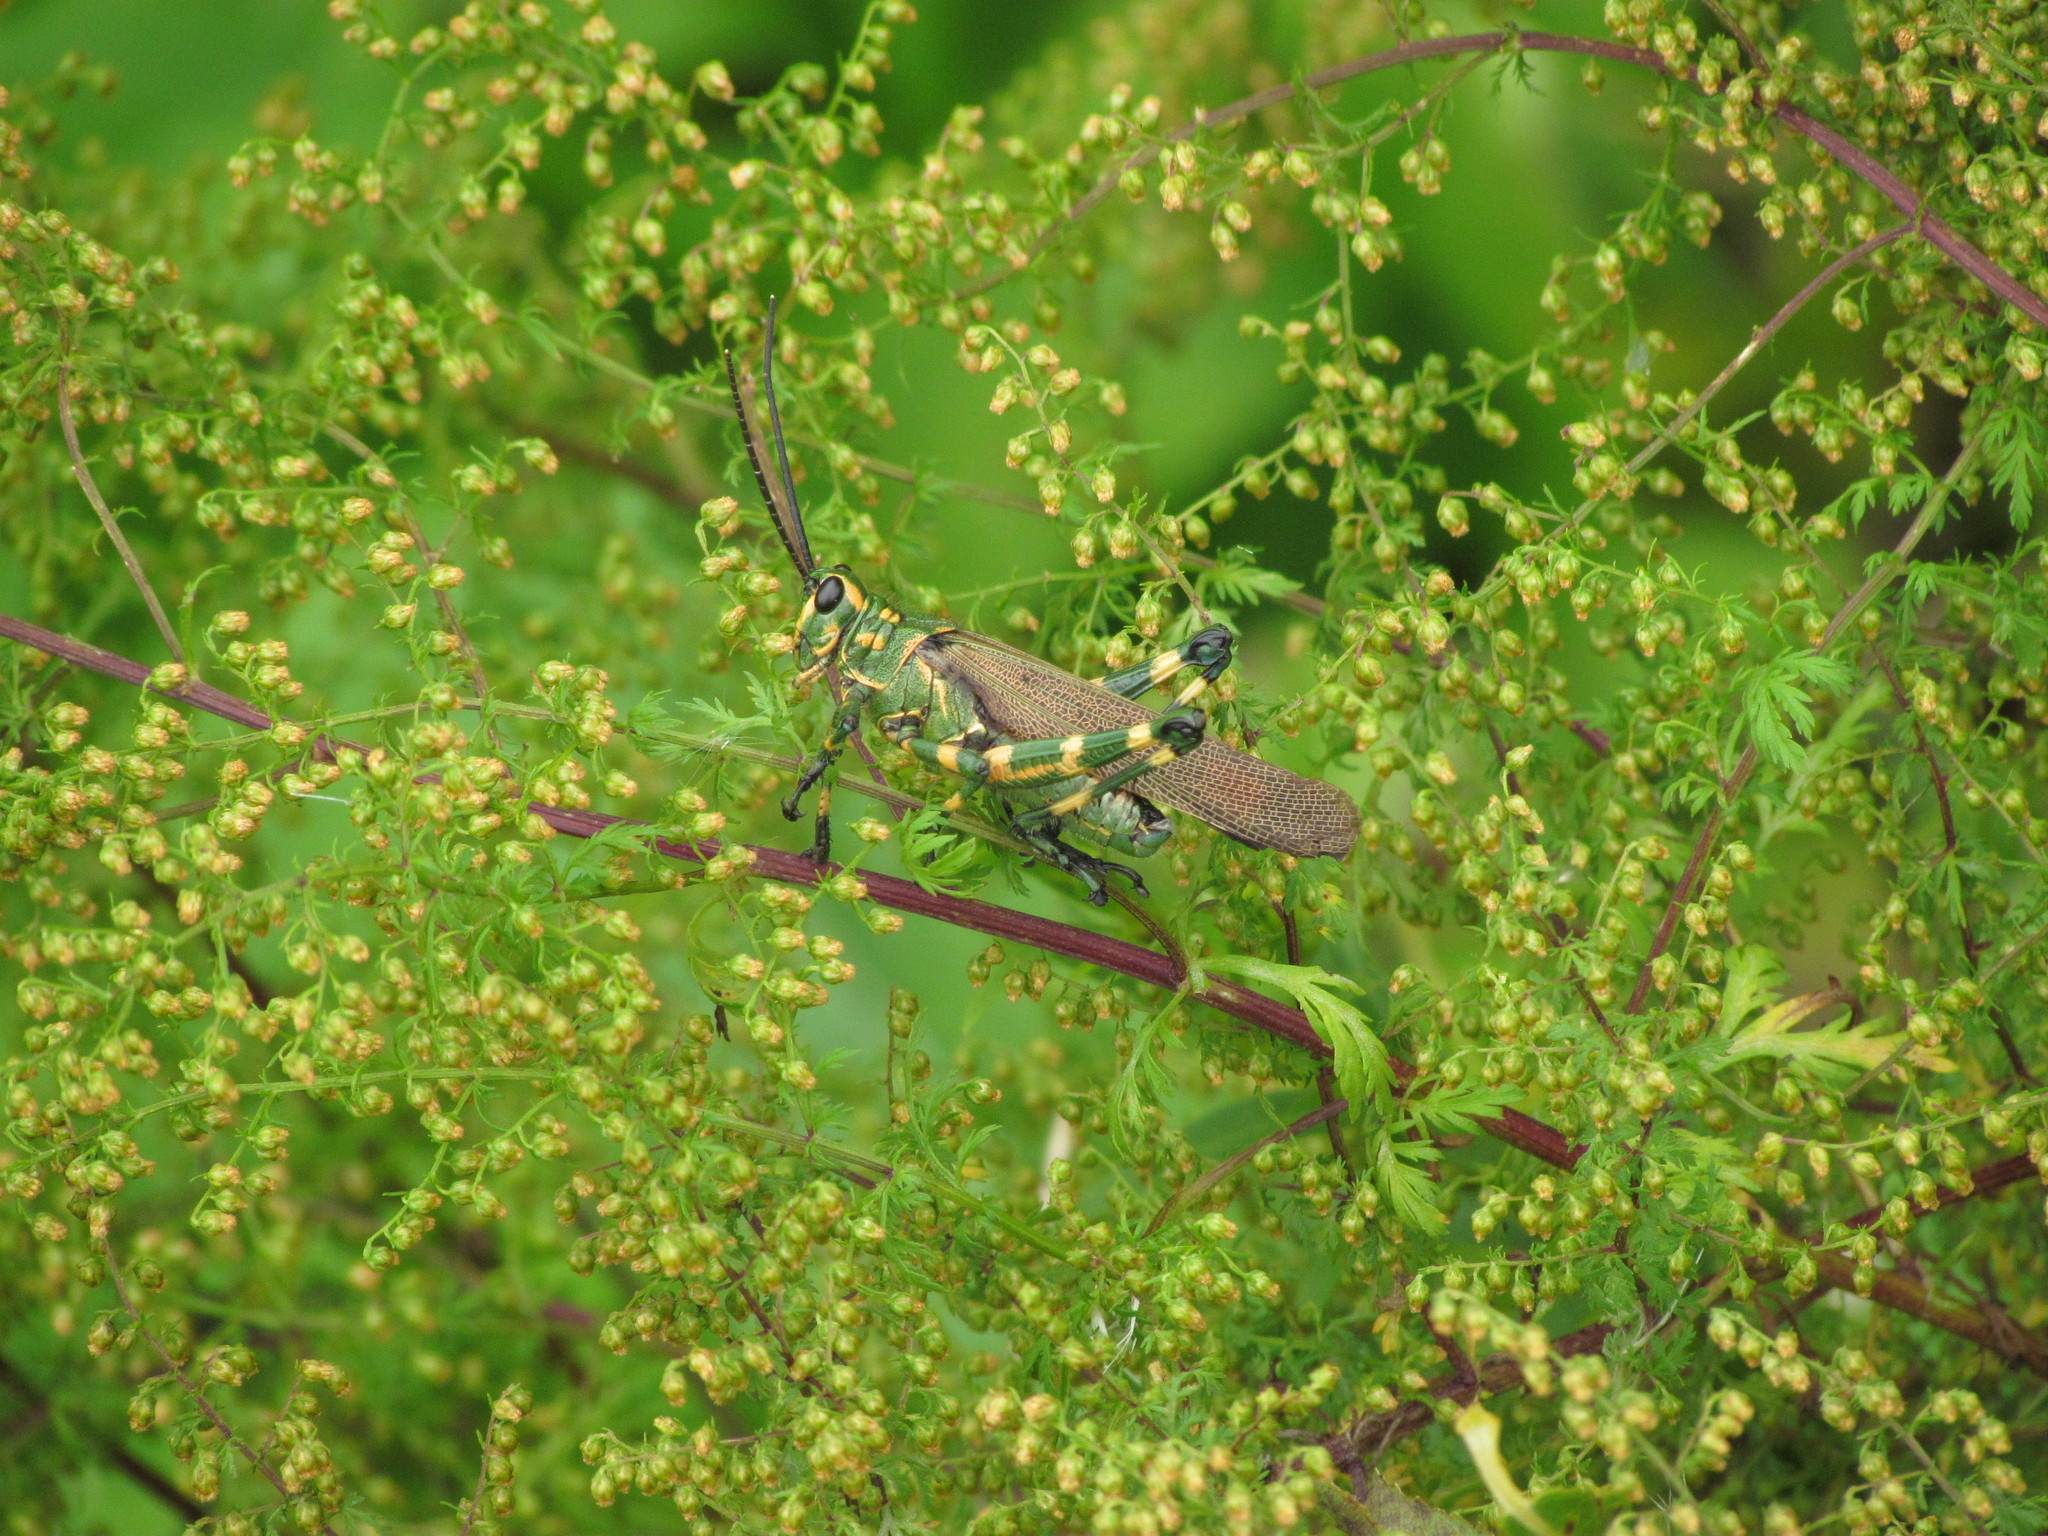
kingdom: Animalia
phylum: Arthropoda
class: Insecta
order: Orthoptera
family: Romaleidae
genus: Chromacris
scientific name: Chromacris speciosa
